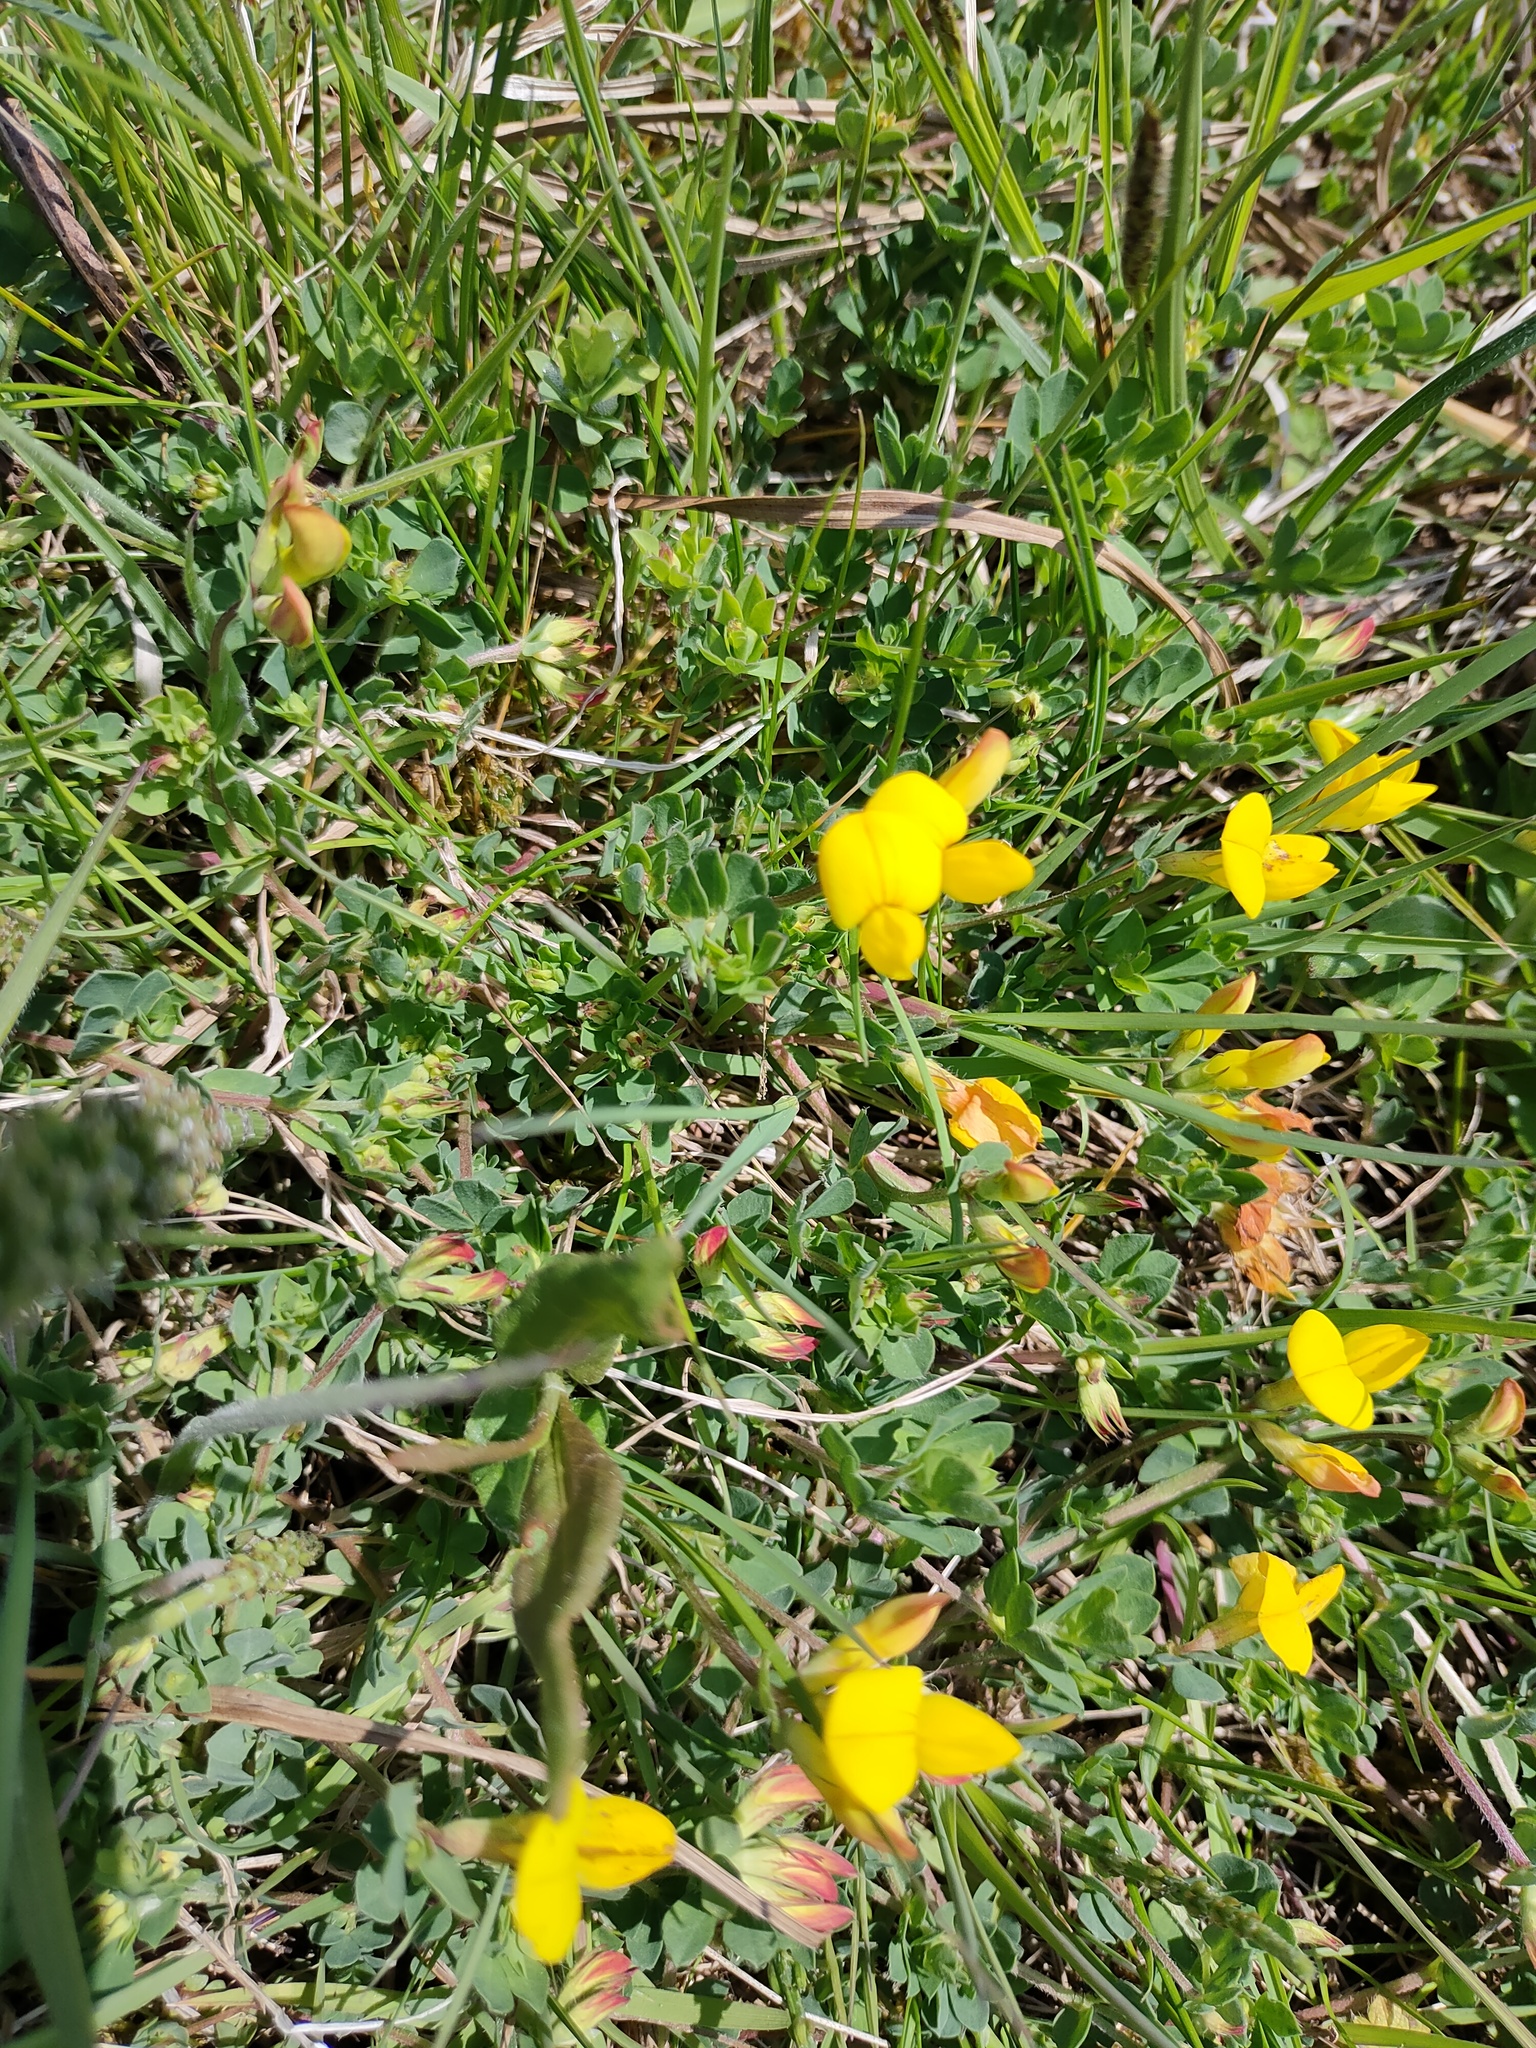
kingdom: Plantae
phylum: Tracheophyta
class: Magnoliopsida
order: Fabales
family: Fabaceae
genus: Lotus
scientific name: Lotus corniculatus
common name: Common bird's-foot-trefoil
